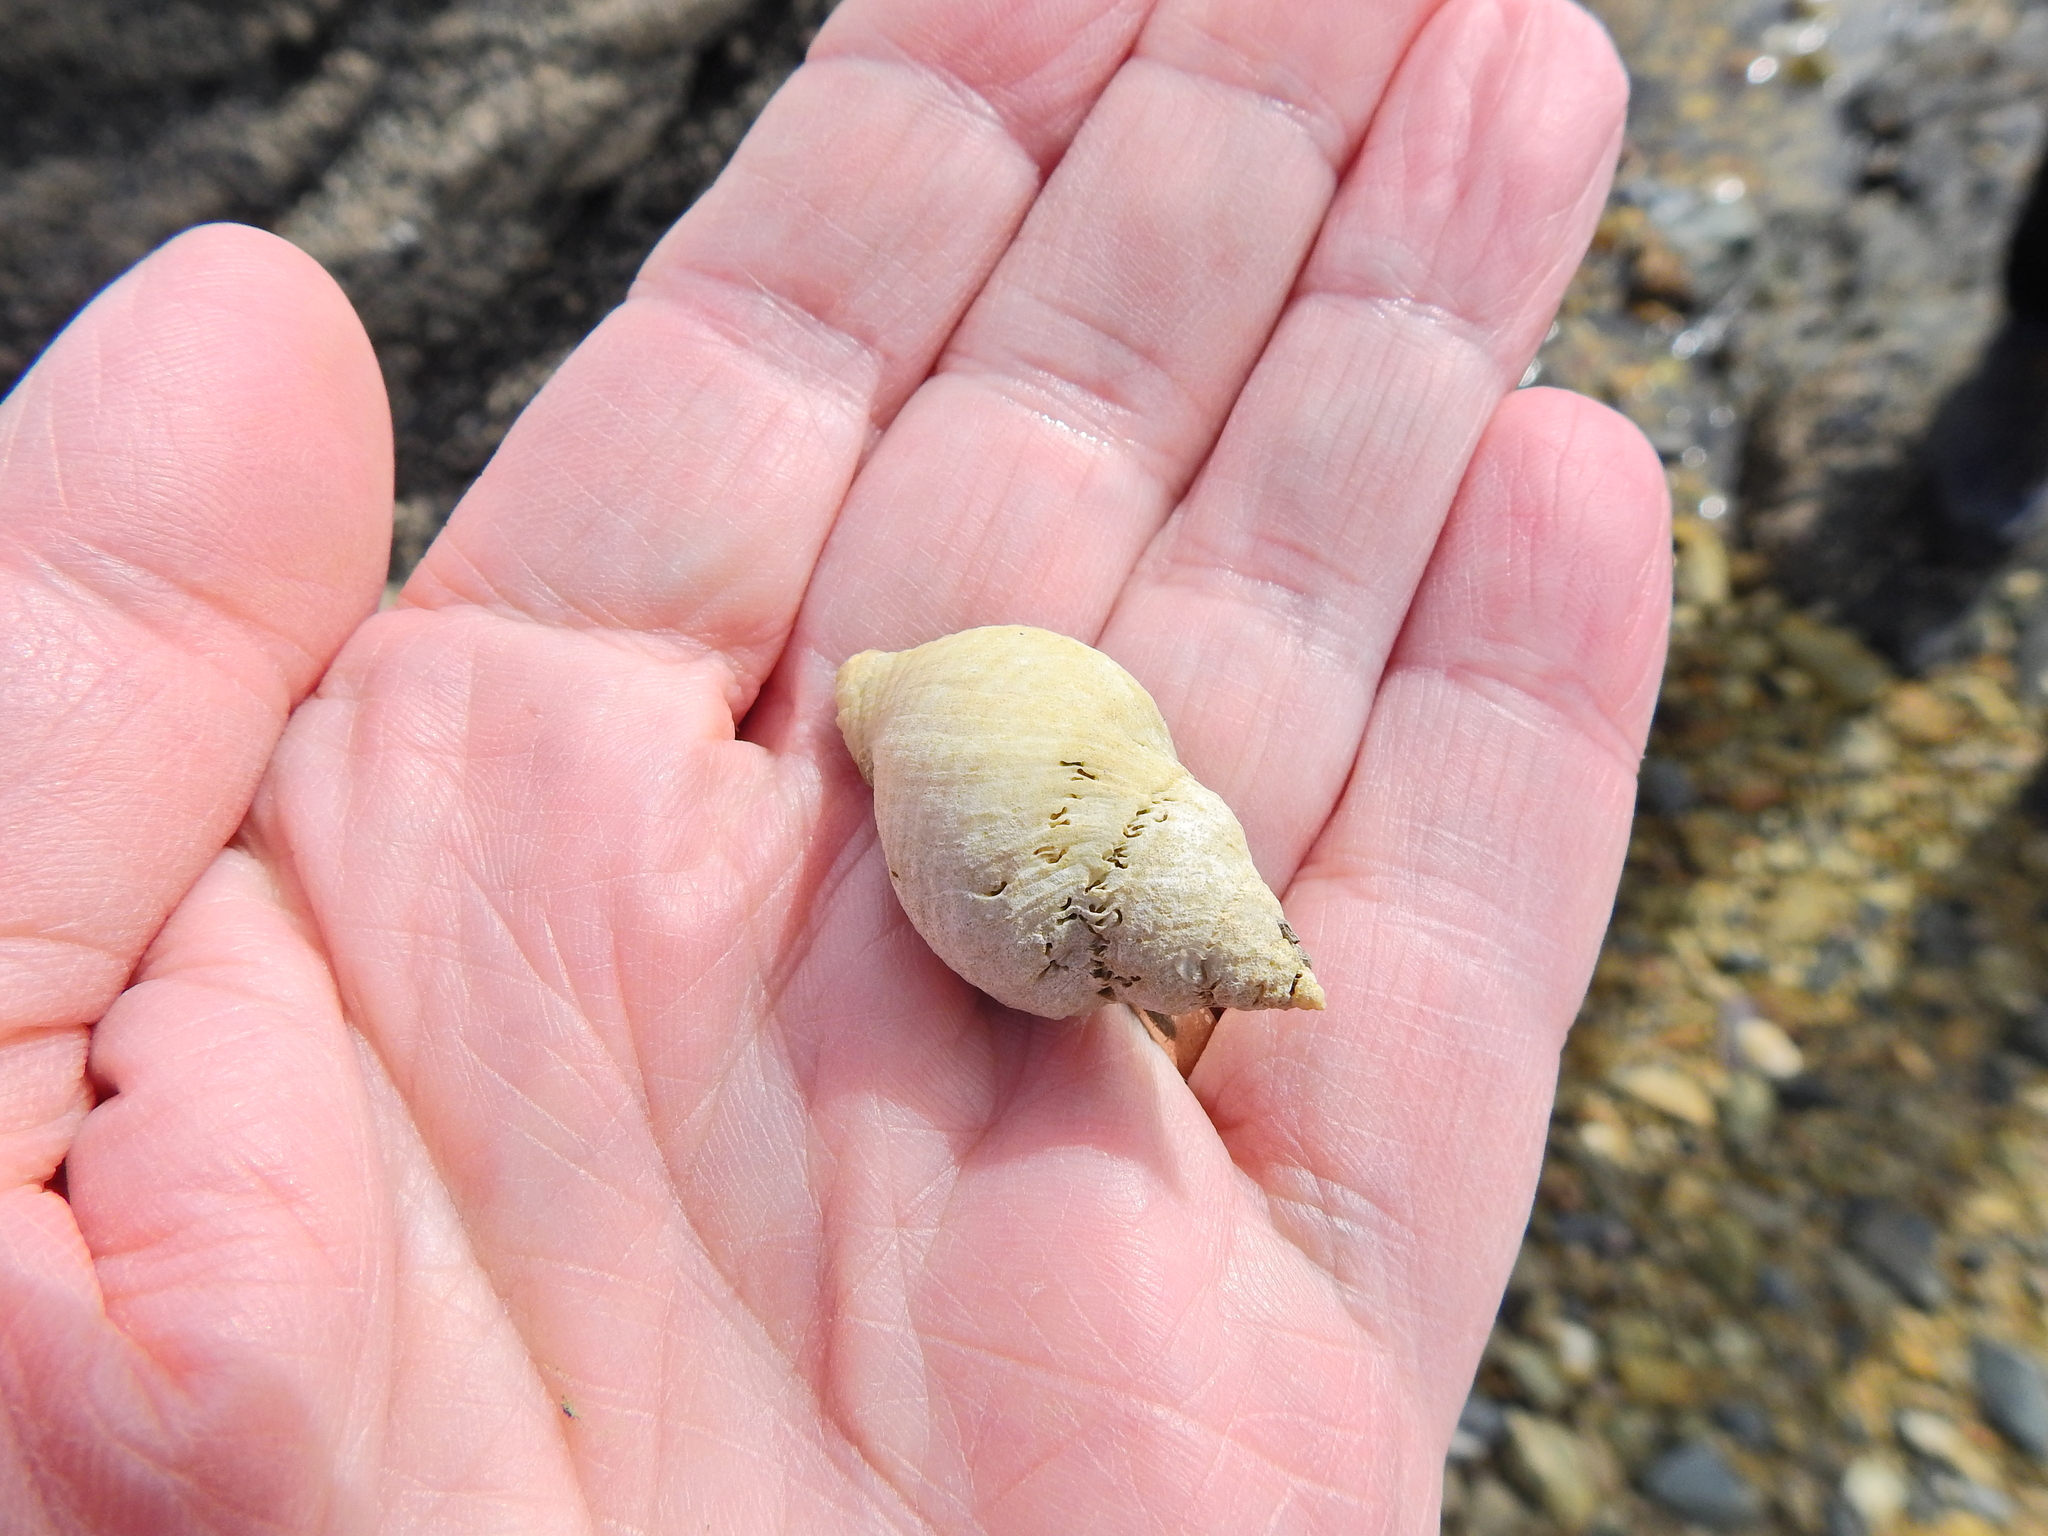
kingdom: Animalia
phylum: Mollusca
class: Gastropoda
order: Neogastropoda
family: Muricidae
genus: Nucella
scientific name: Nucella lapillus
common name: Dog whelk
